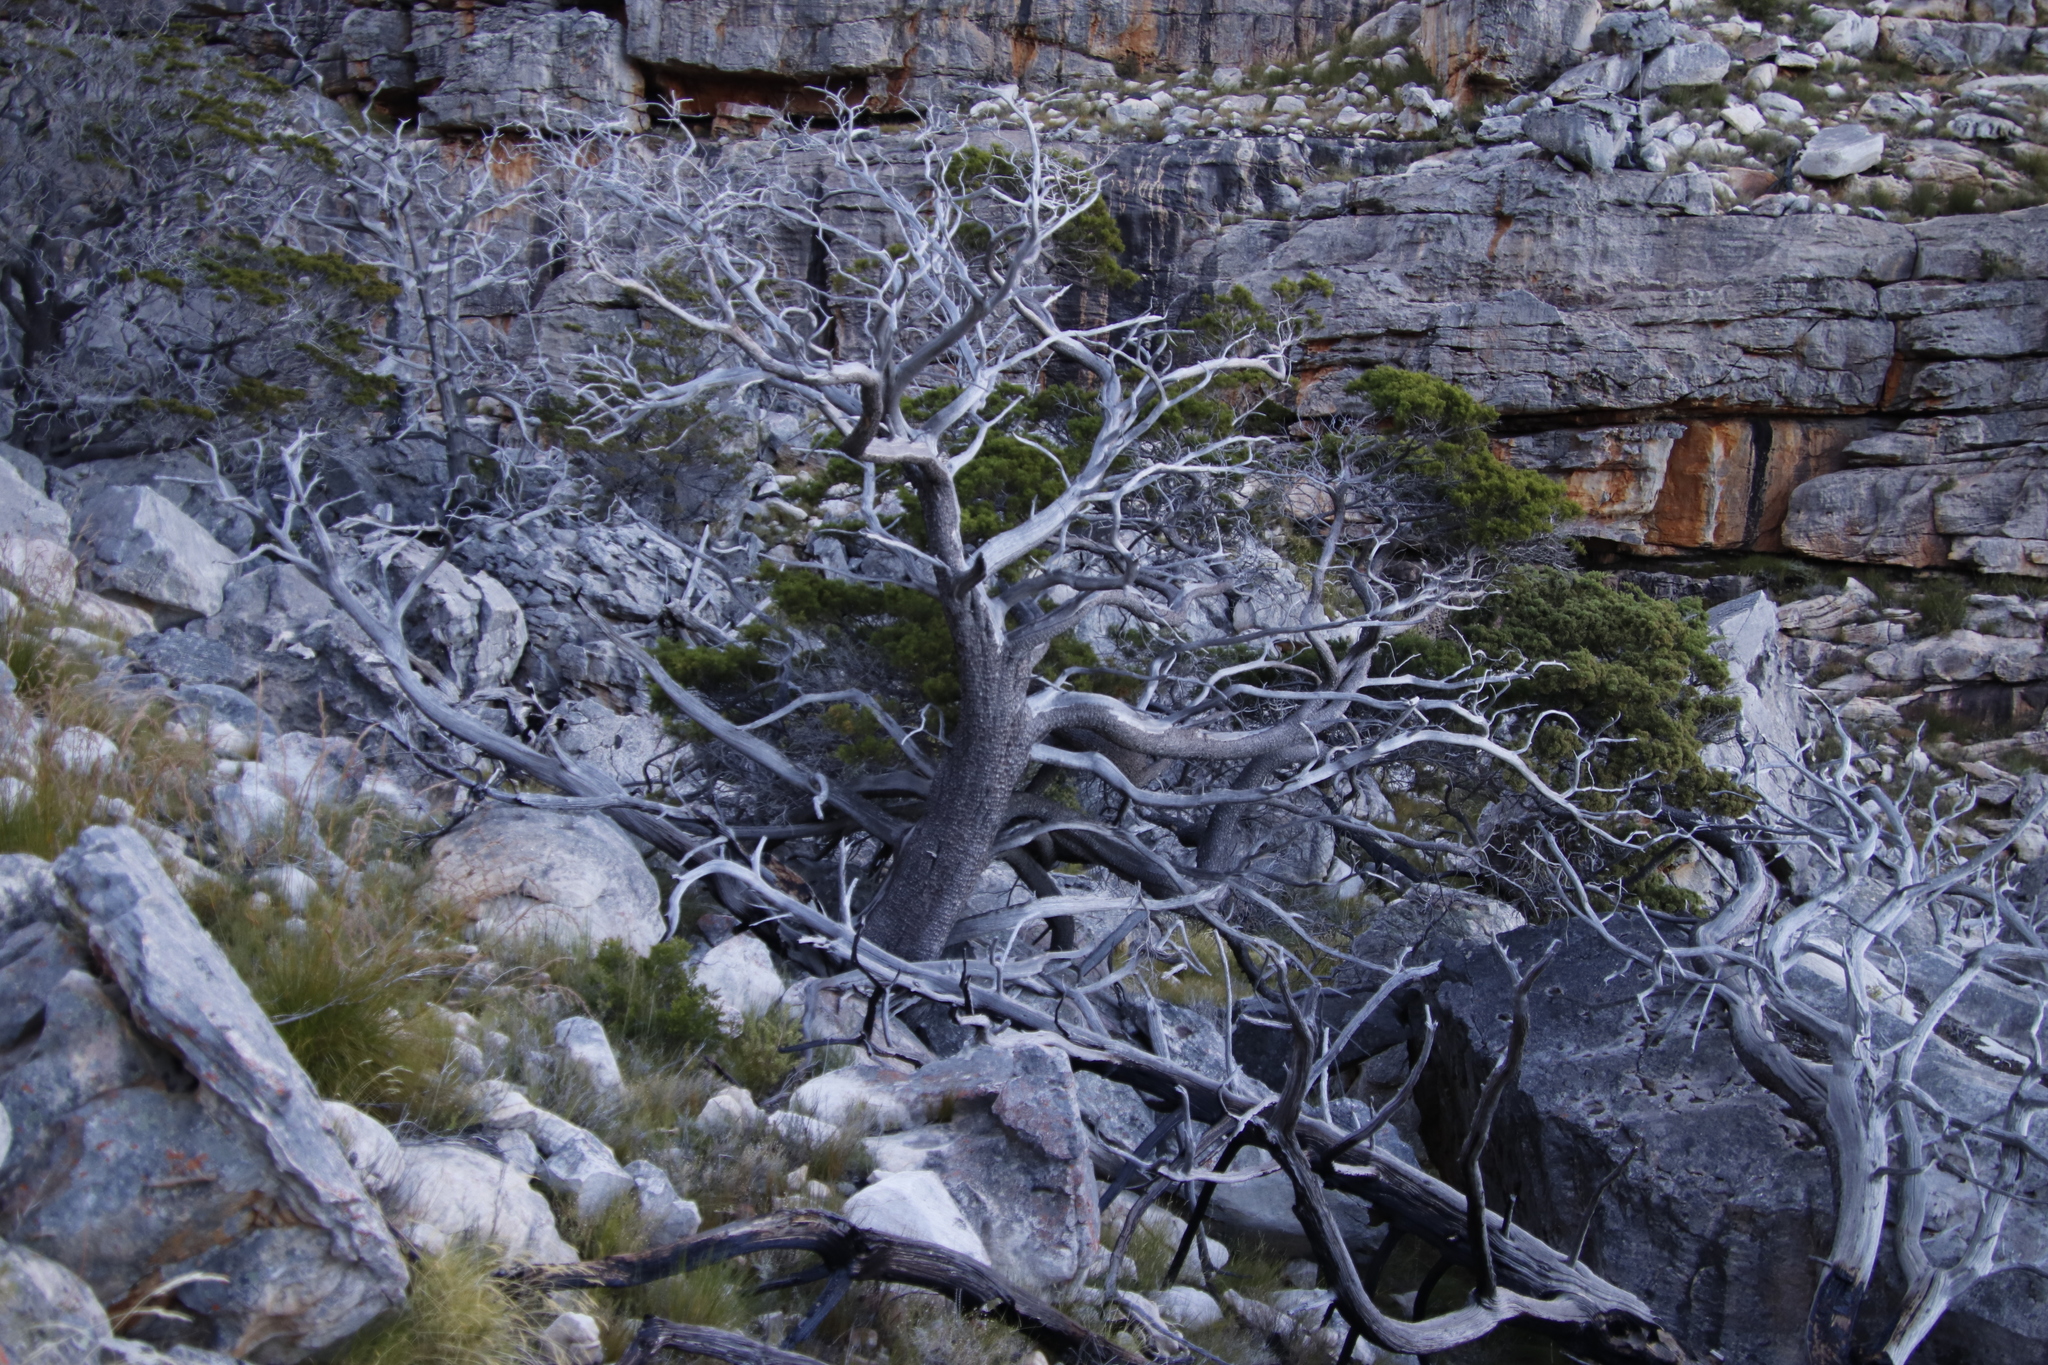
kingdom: Plantae
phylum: Tracheophyta
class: Pinopsida
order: Pinales
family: Cupressaceae
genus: Widdringtonia
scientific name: Widdringtonia nodiflora
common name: Cape cypress
